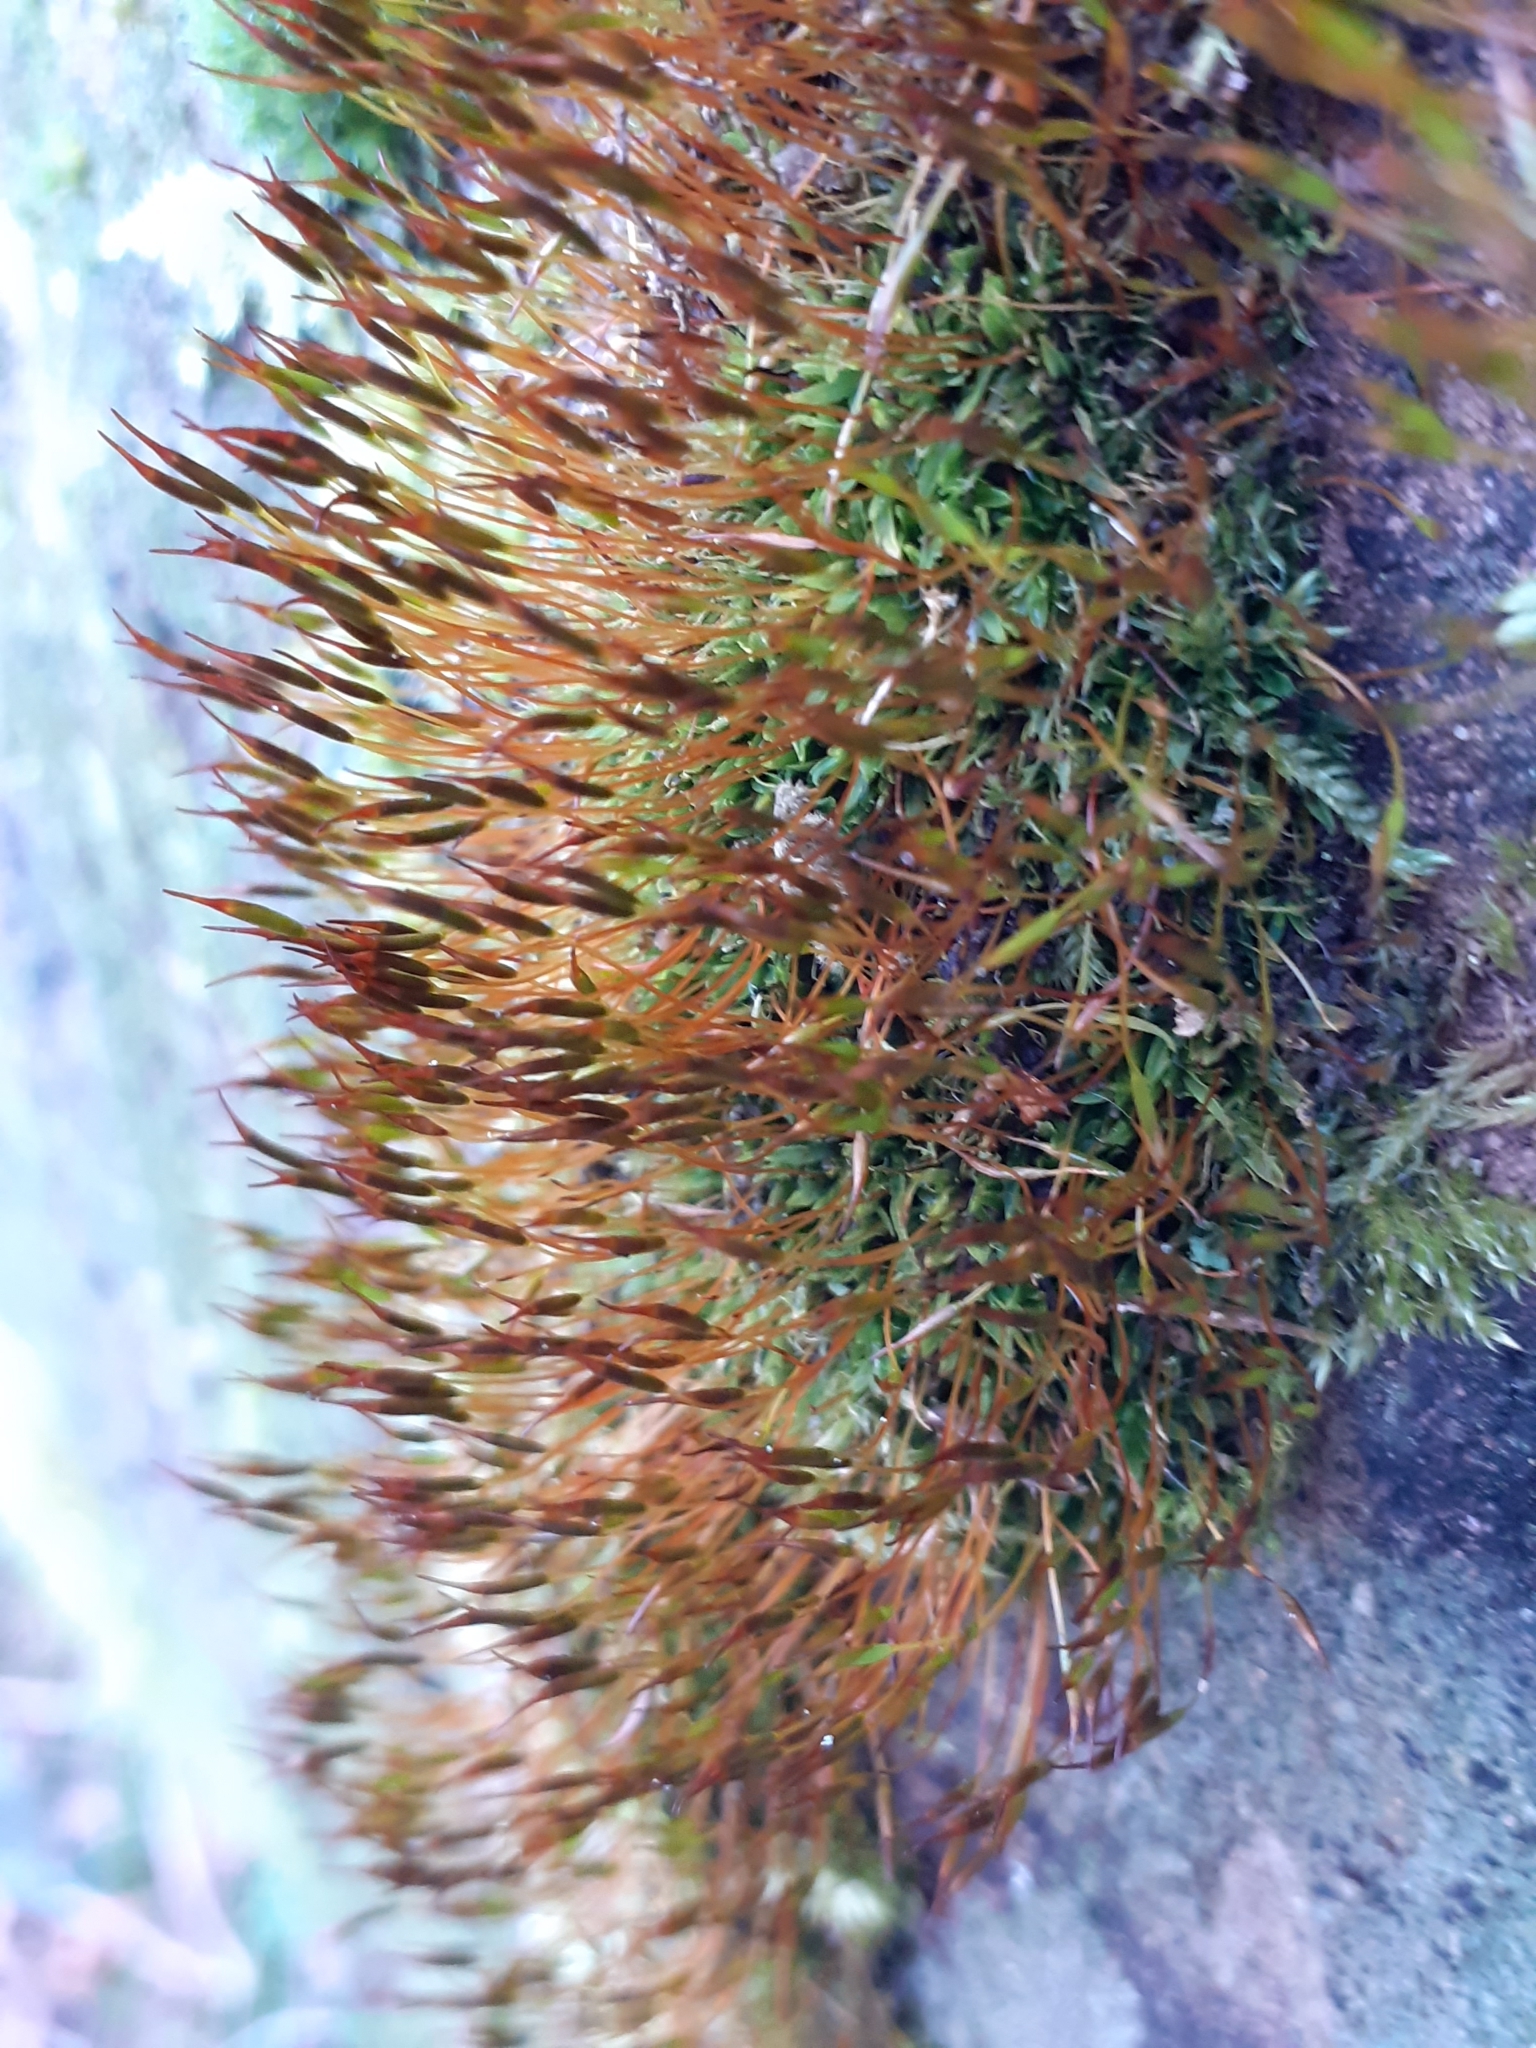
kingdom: Plantae
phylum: Bryophyta
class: Bryopsida
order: Pottiales
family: Pottiaceae
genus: Tortula
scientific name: Tortula muralis
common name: Wall screw-moss
